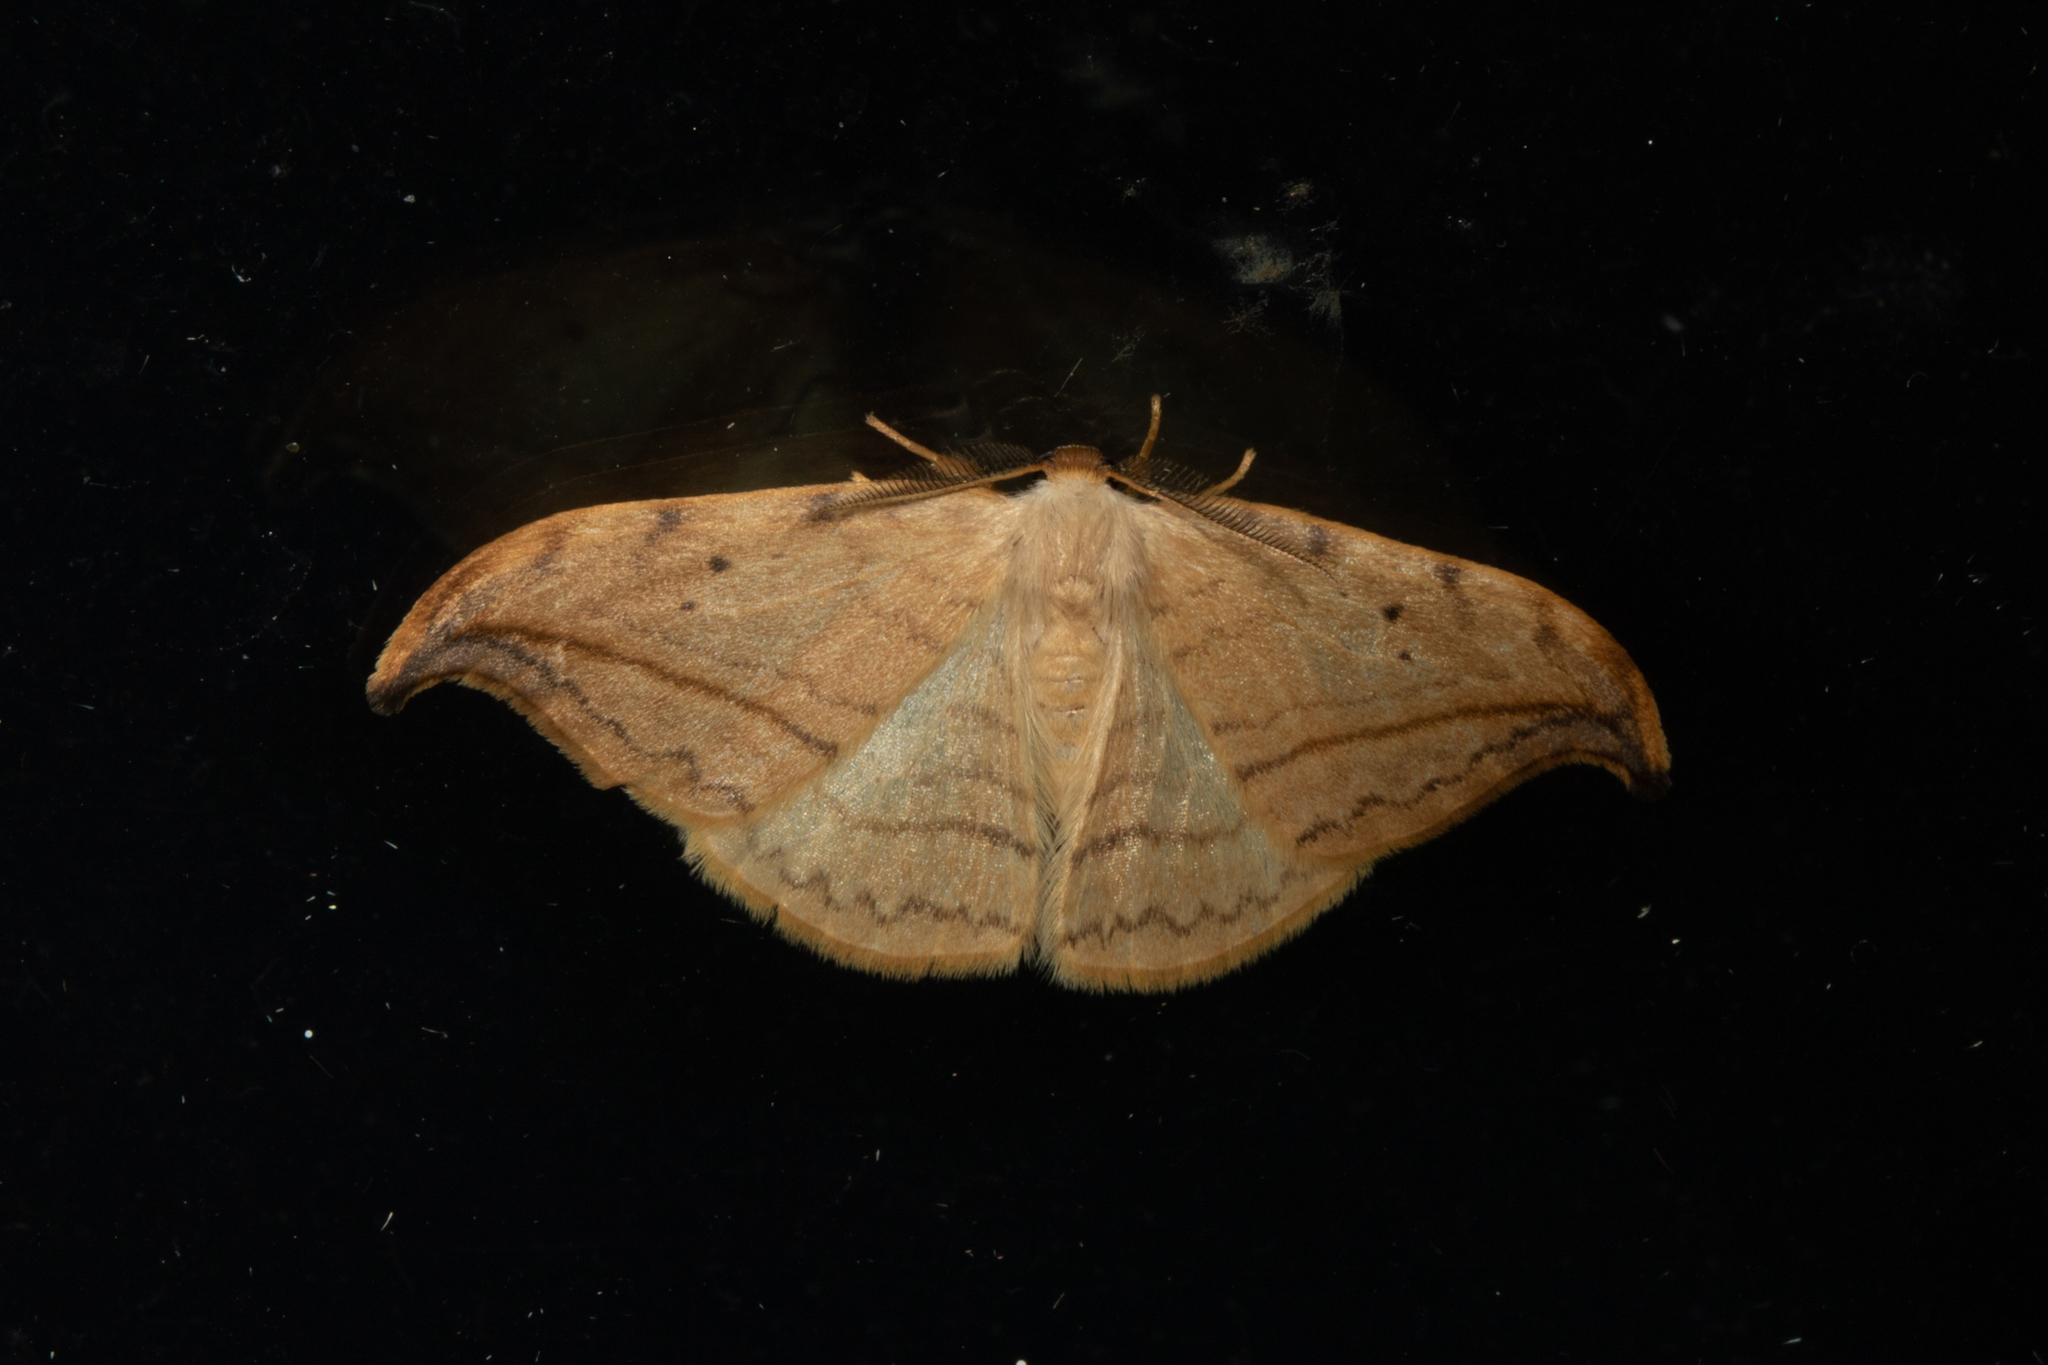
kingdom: Animalia
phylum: Arthropoda
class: Insecta
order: Lepidoptera
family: Drepanidae
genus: Drepana
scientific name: Drepana arcuata
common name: Arched hooktip moth
